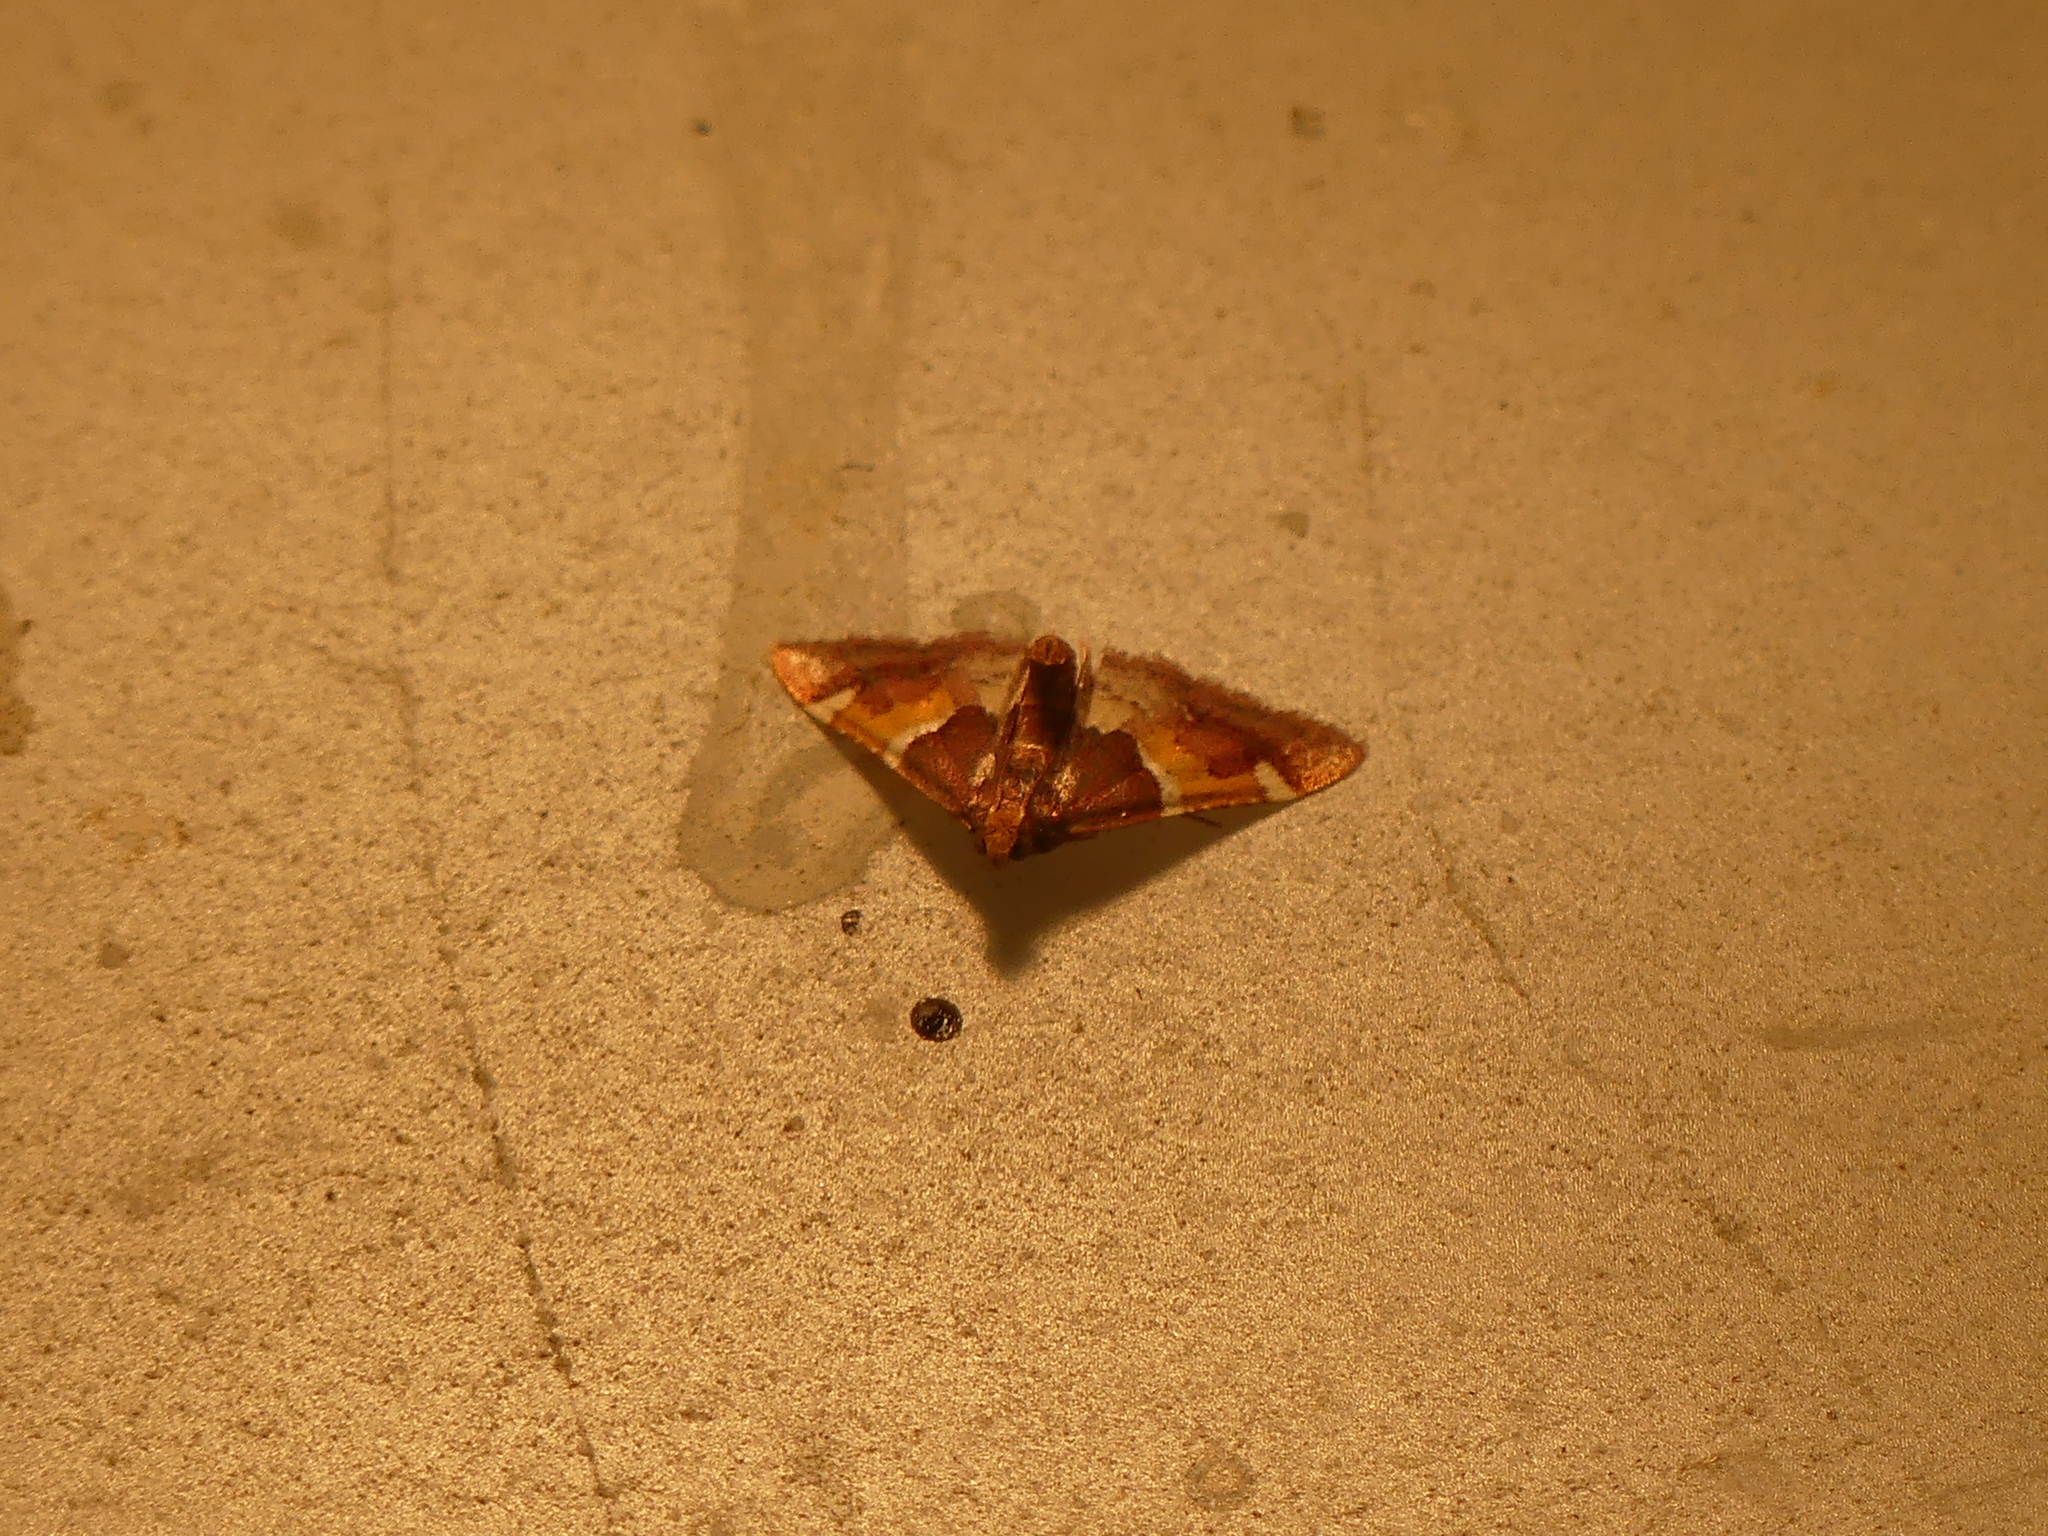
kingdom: Animalia
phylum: Arthropoda
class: Insecta
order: Lepidoptera
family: Pyralidae
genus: Pyralis
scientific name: Pyralis kacheticalis
